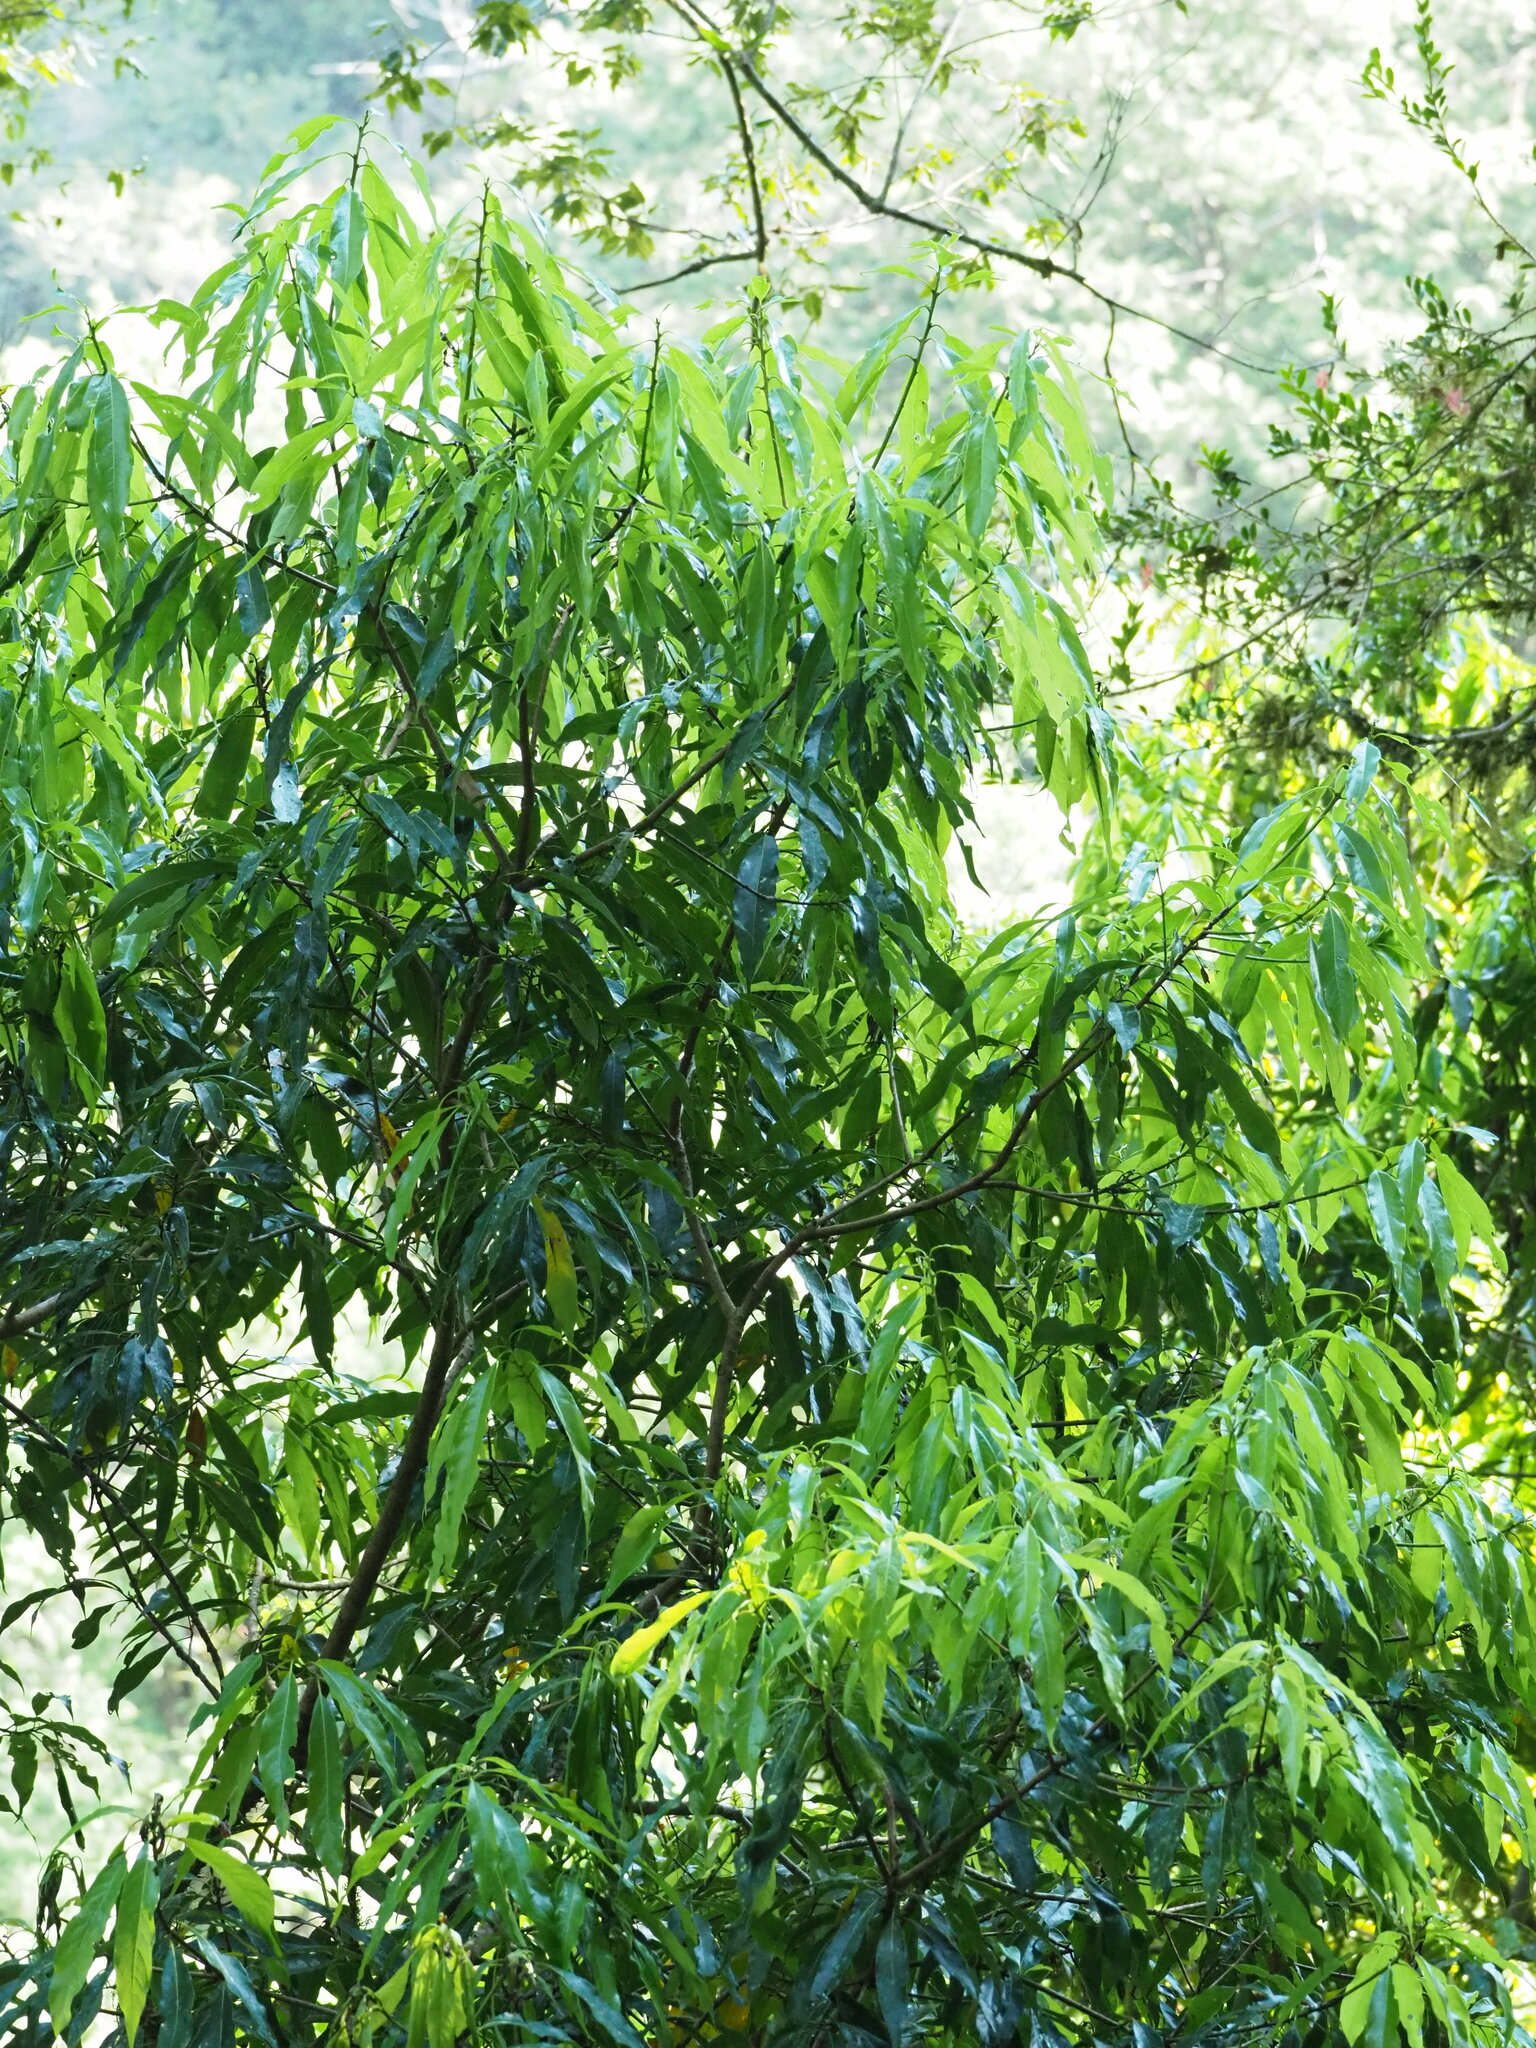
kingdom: Plantae
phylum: Tracheophyta
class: Magnoliopsida
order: Laurales
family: Lauraceae
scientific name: Lauraceae
